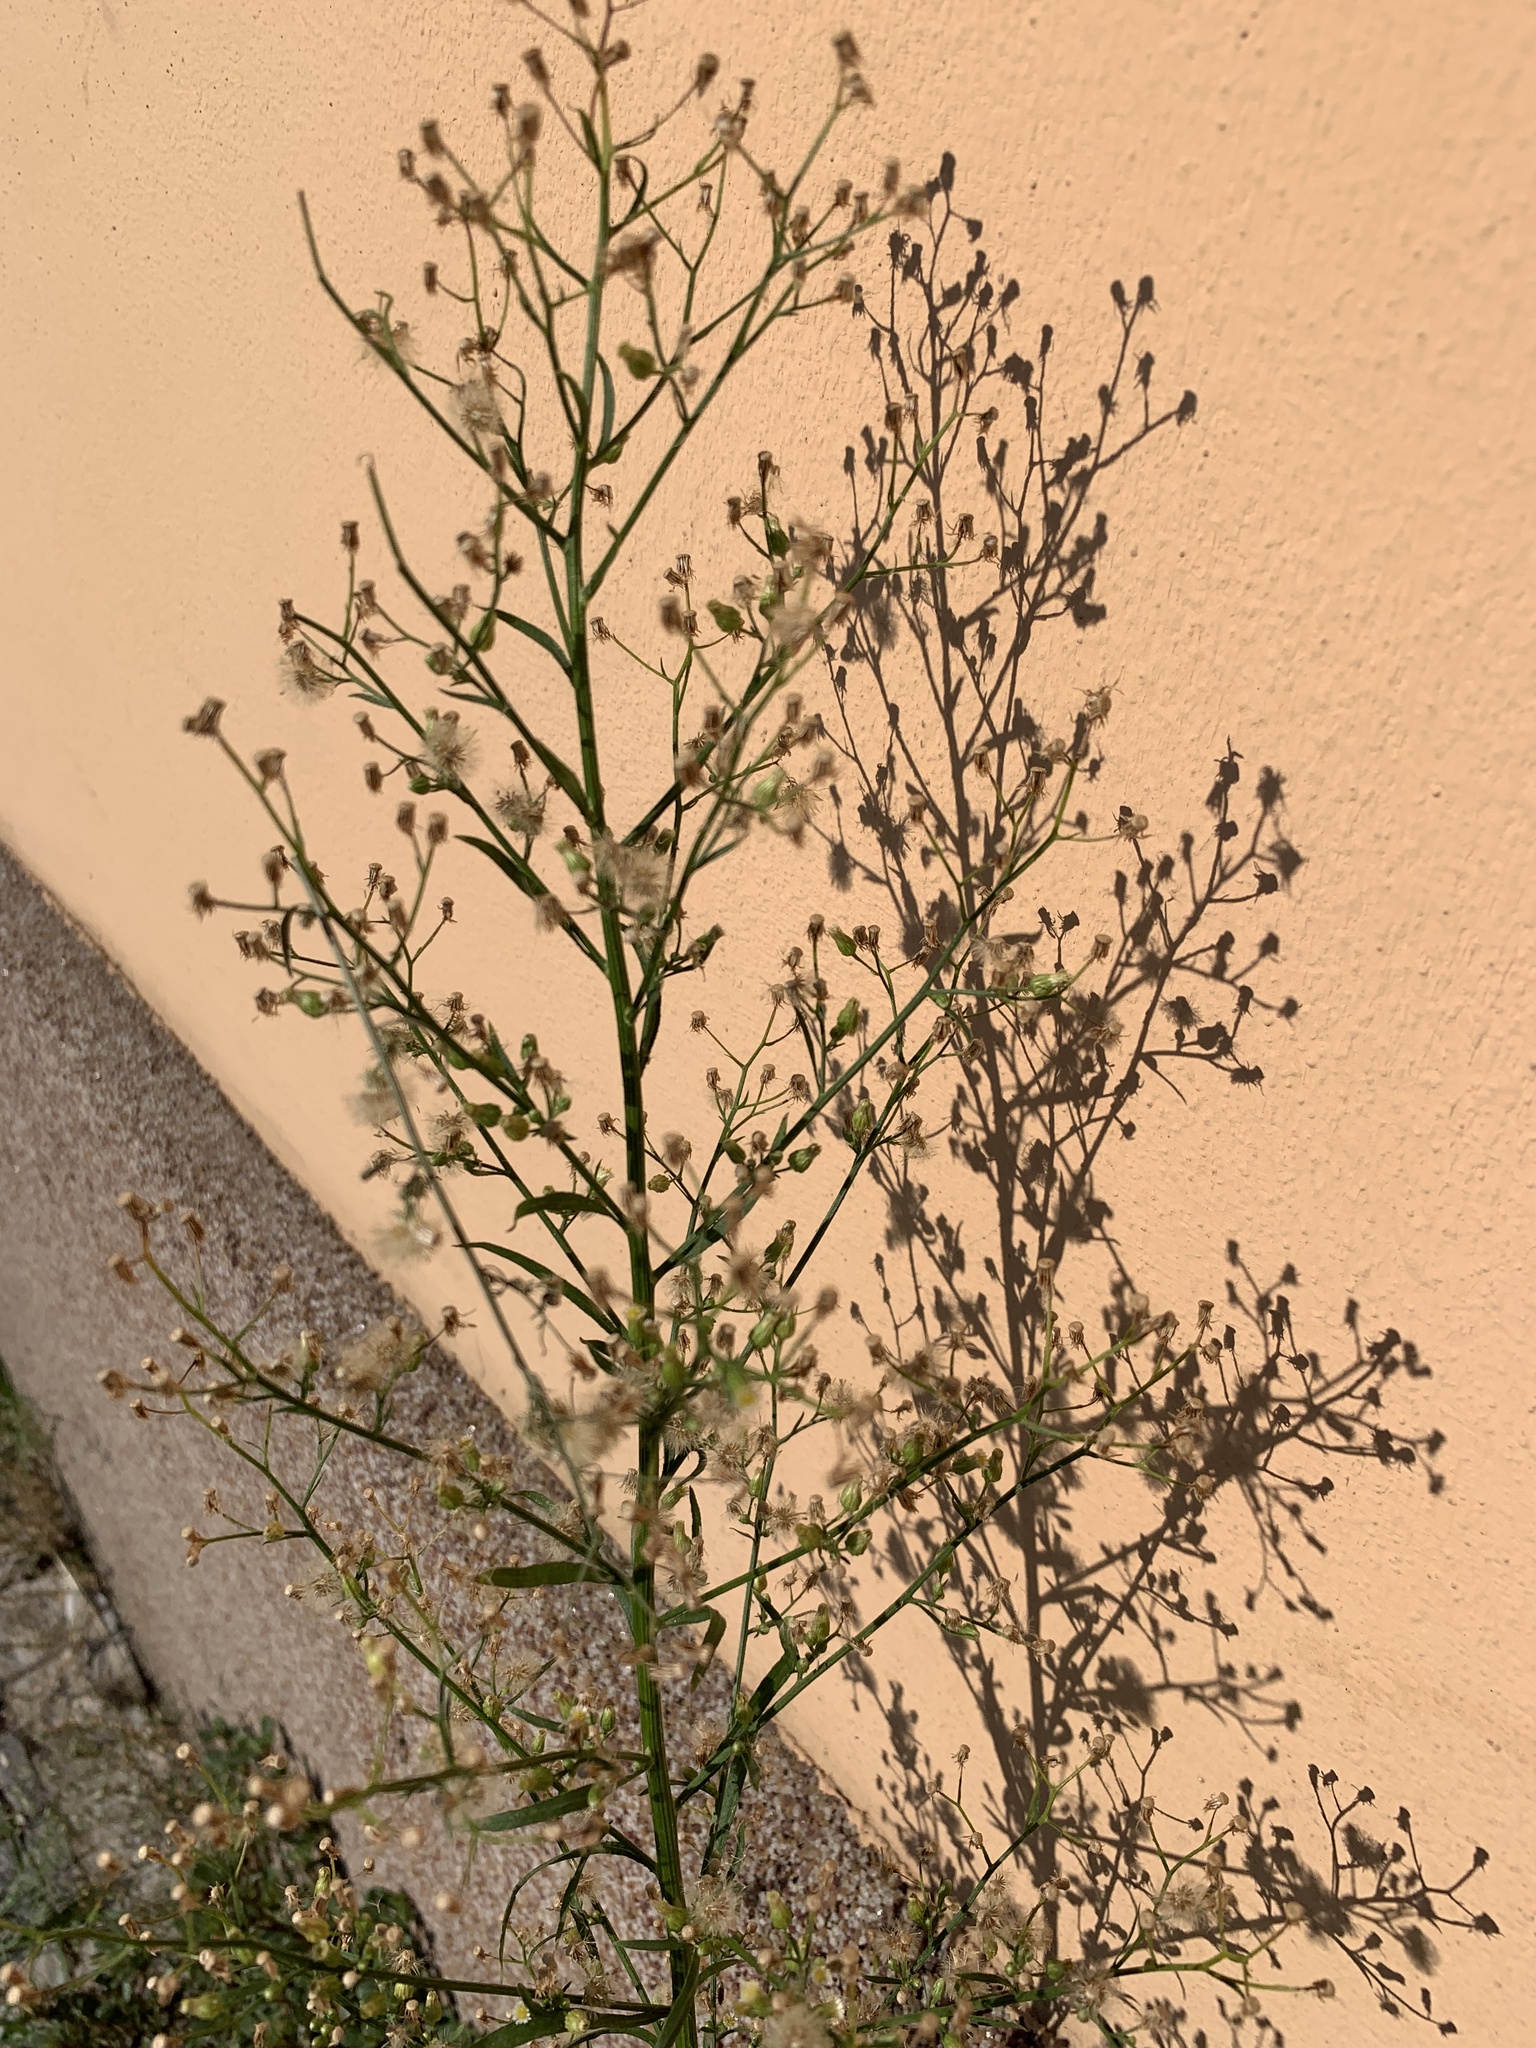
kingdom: Plantae
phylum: Tracheophyta
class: Magnoliopsida
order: Asterales
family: Asteraceae
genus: Erigeron
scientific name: Erigeron canadensis
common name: Canadian fleabane
